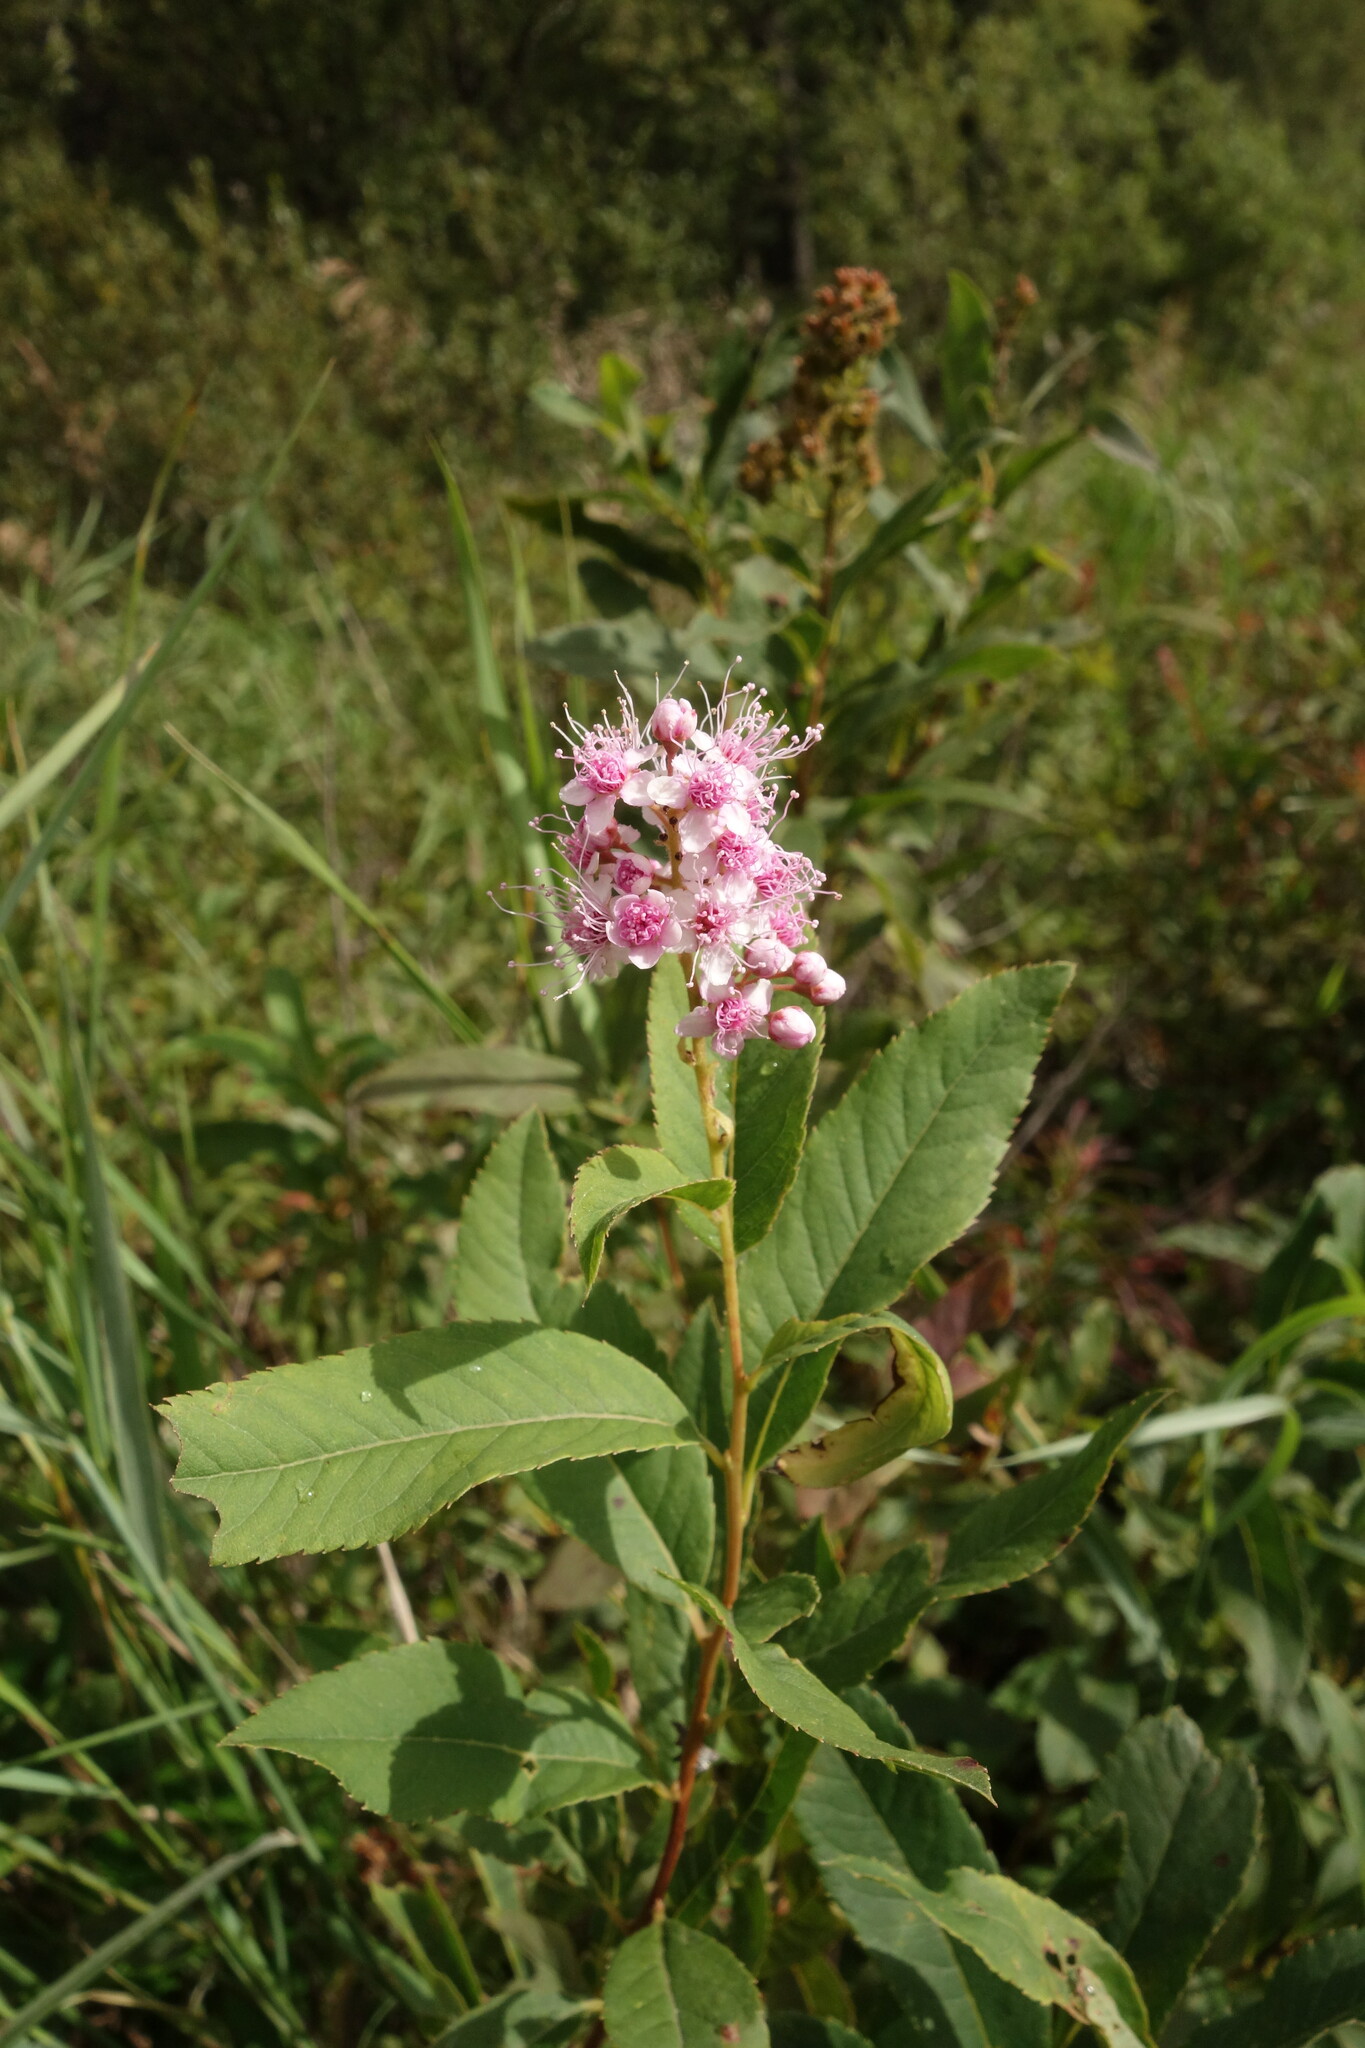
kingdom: Plantae
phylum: Tracheophyta
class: Magnoliopsida
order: Rosales
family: Rosaceae
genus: Spiraea
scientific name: Spiraea salicifolia
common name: Bridewort
